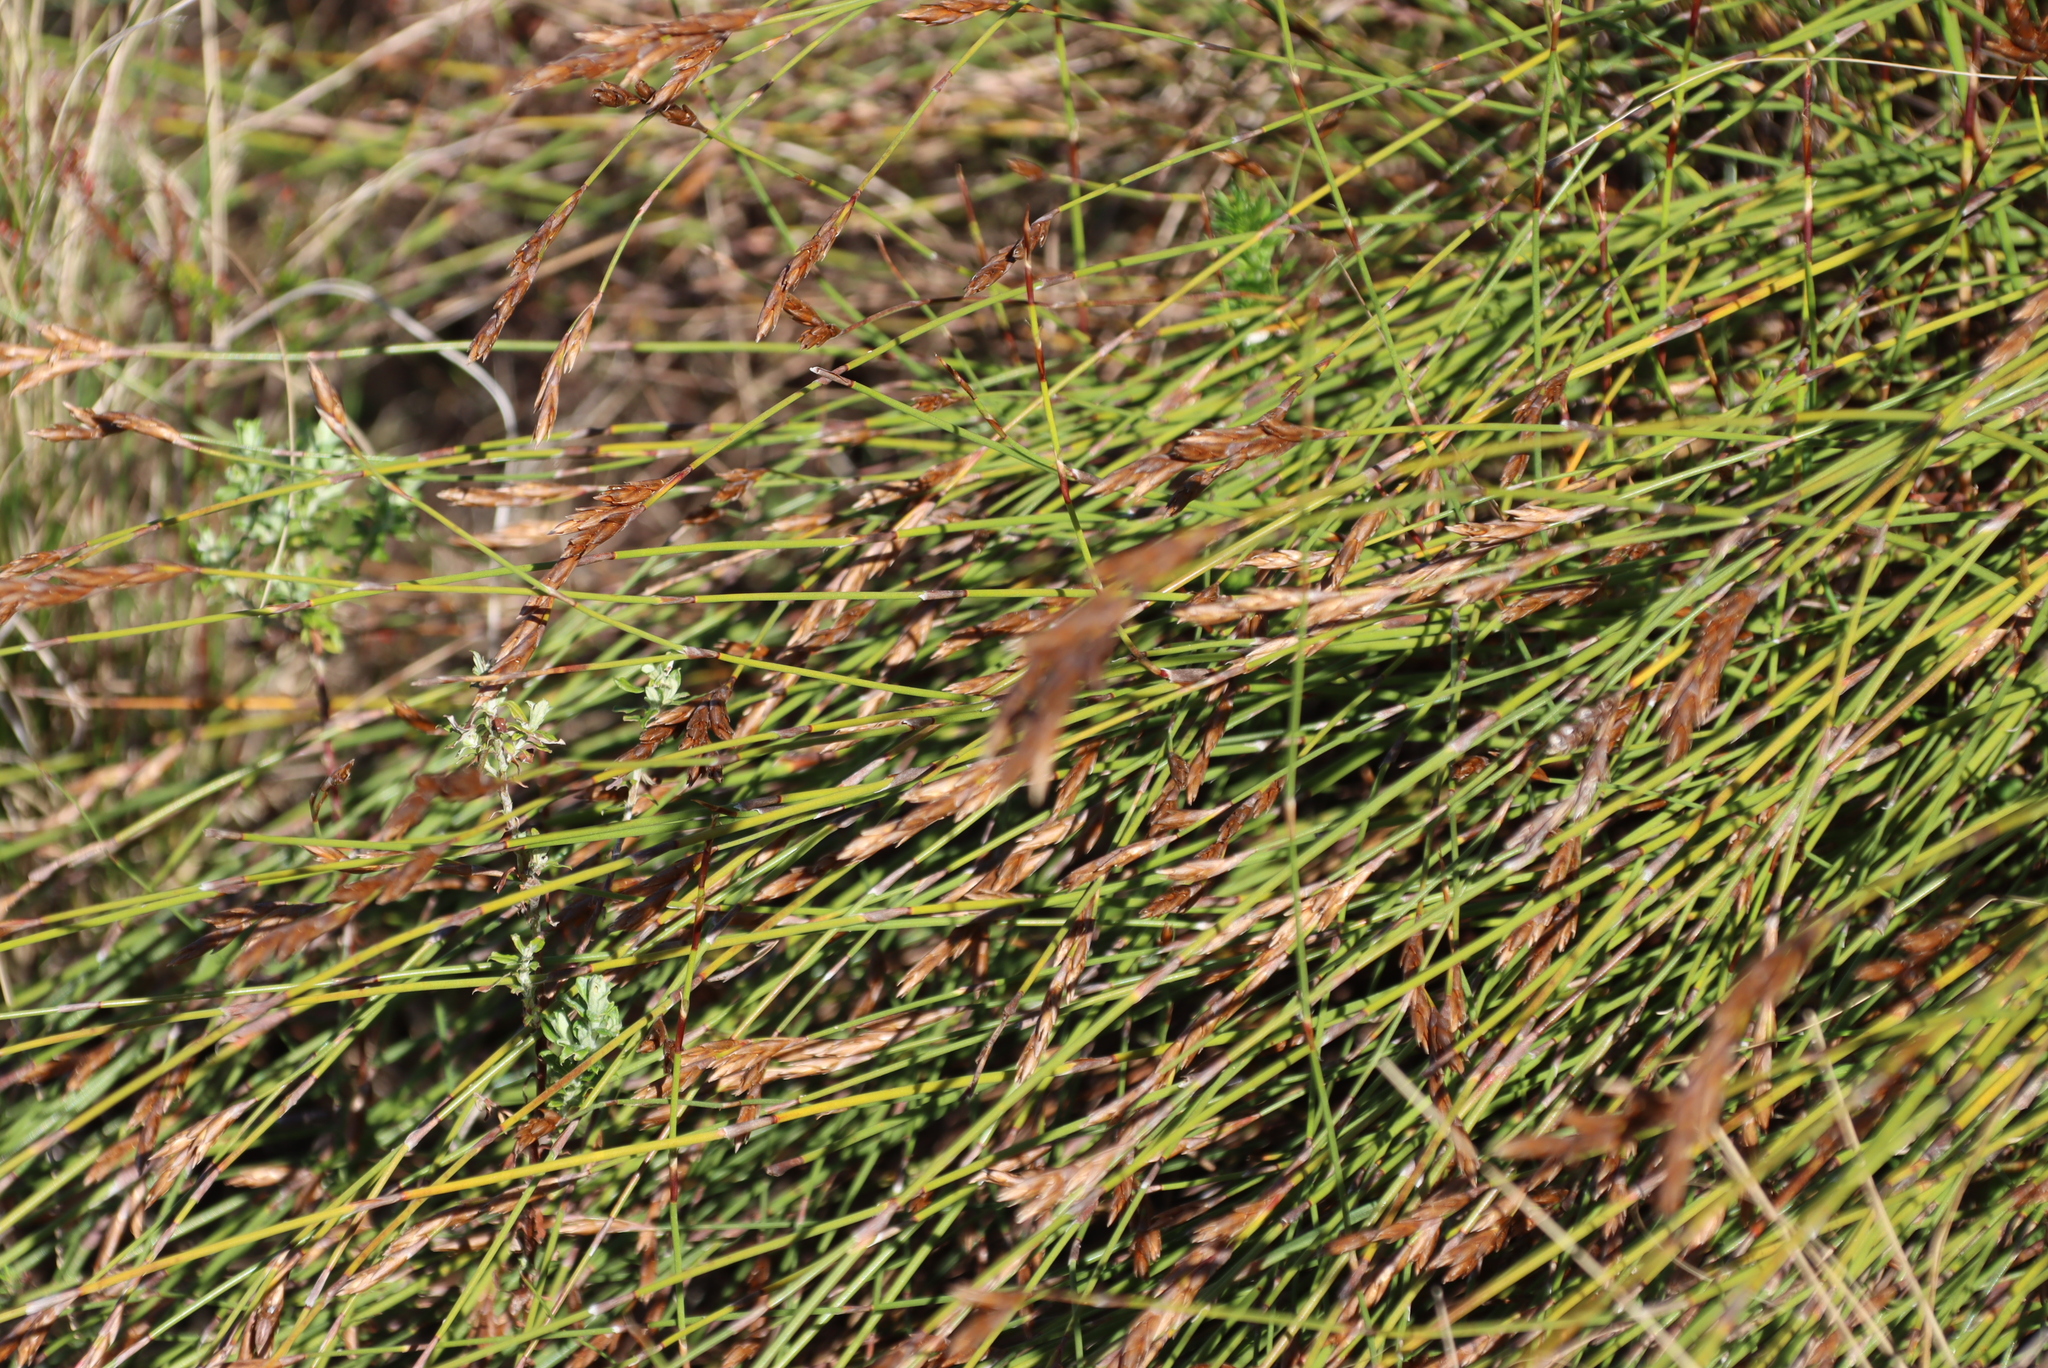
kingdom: Plantae
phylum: Tracheophyta
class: Liliopsida
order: Poales
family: Restionaceae
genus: Restio
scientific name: Restio triticeus
